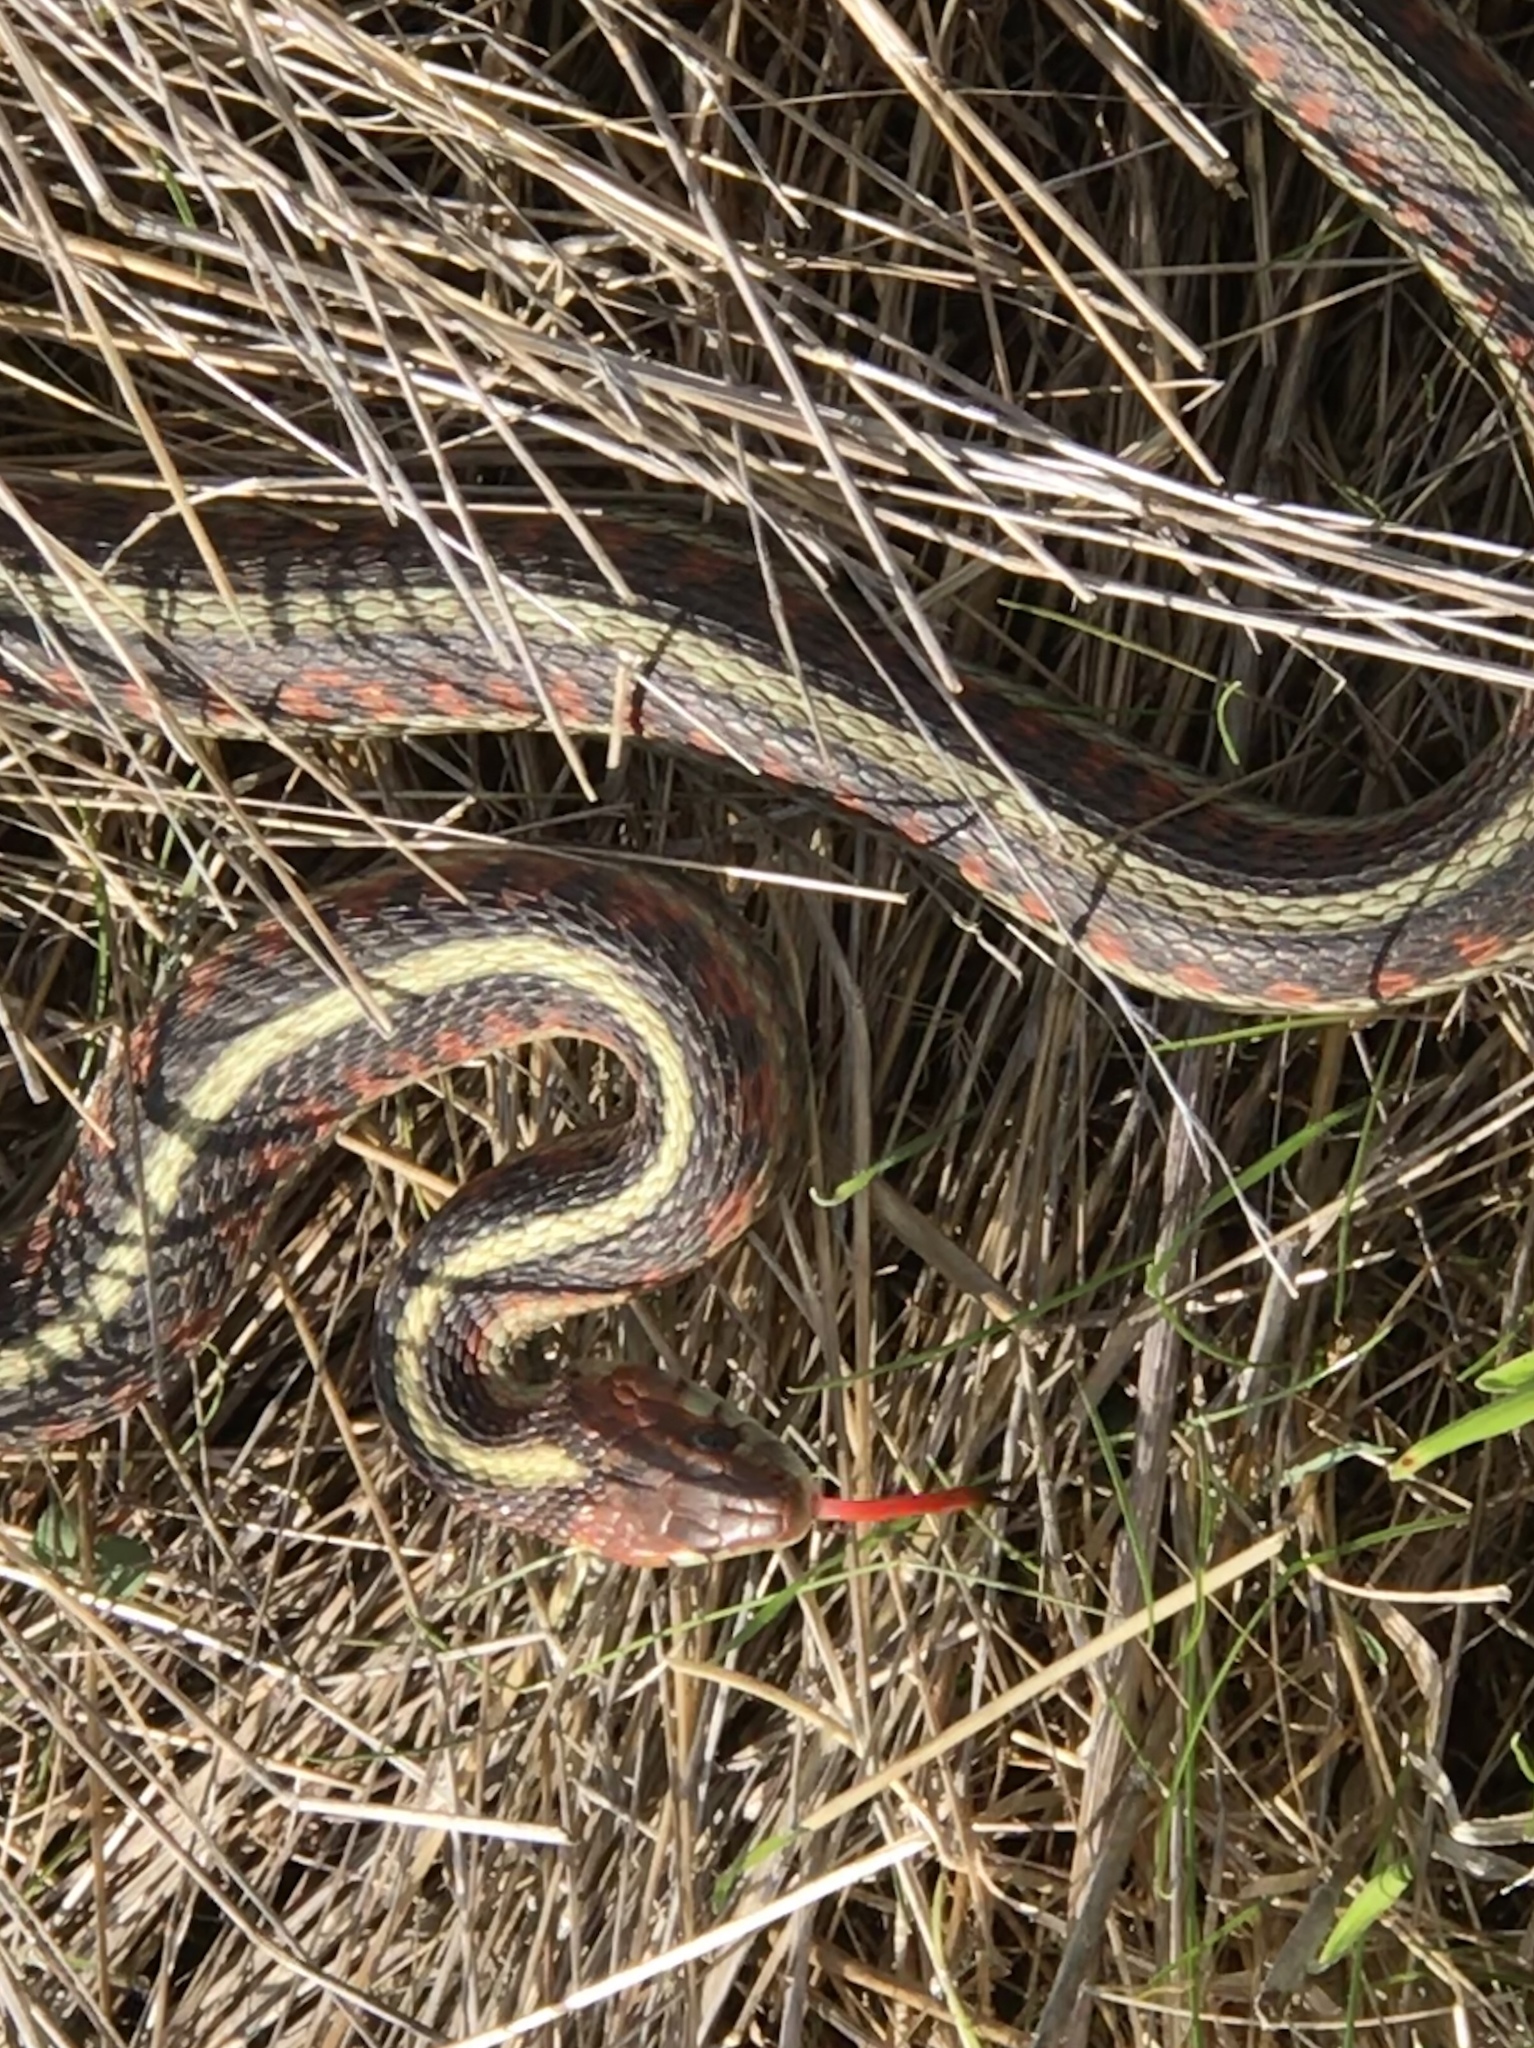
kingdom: Animalia
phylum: Chordata
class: Squamata
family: Colubridae
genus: Thamnophis
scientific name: Thamnophis sirtalis
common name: Common garter snake
